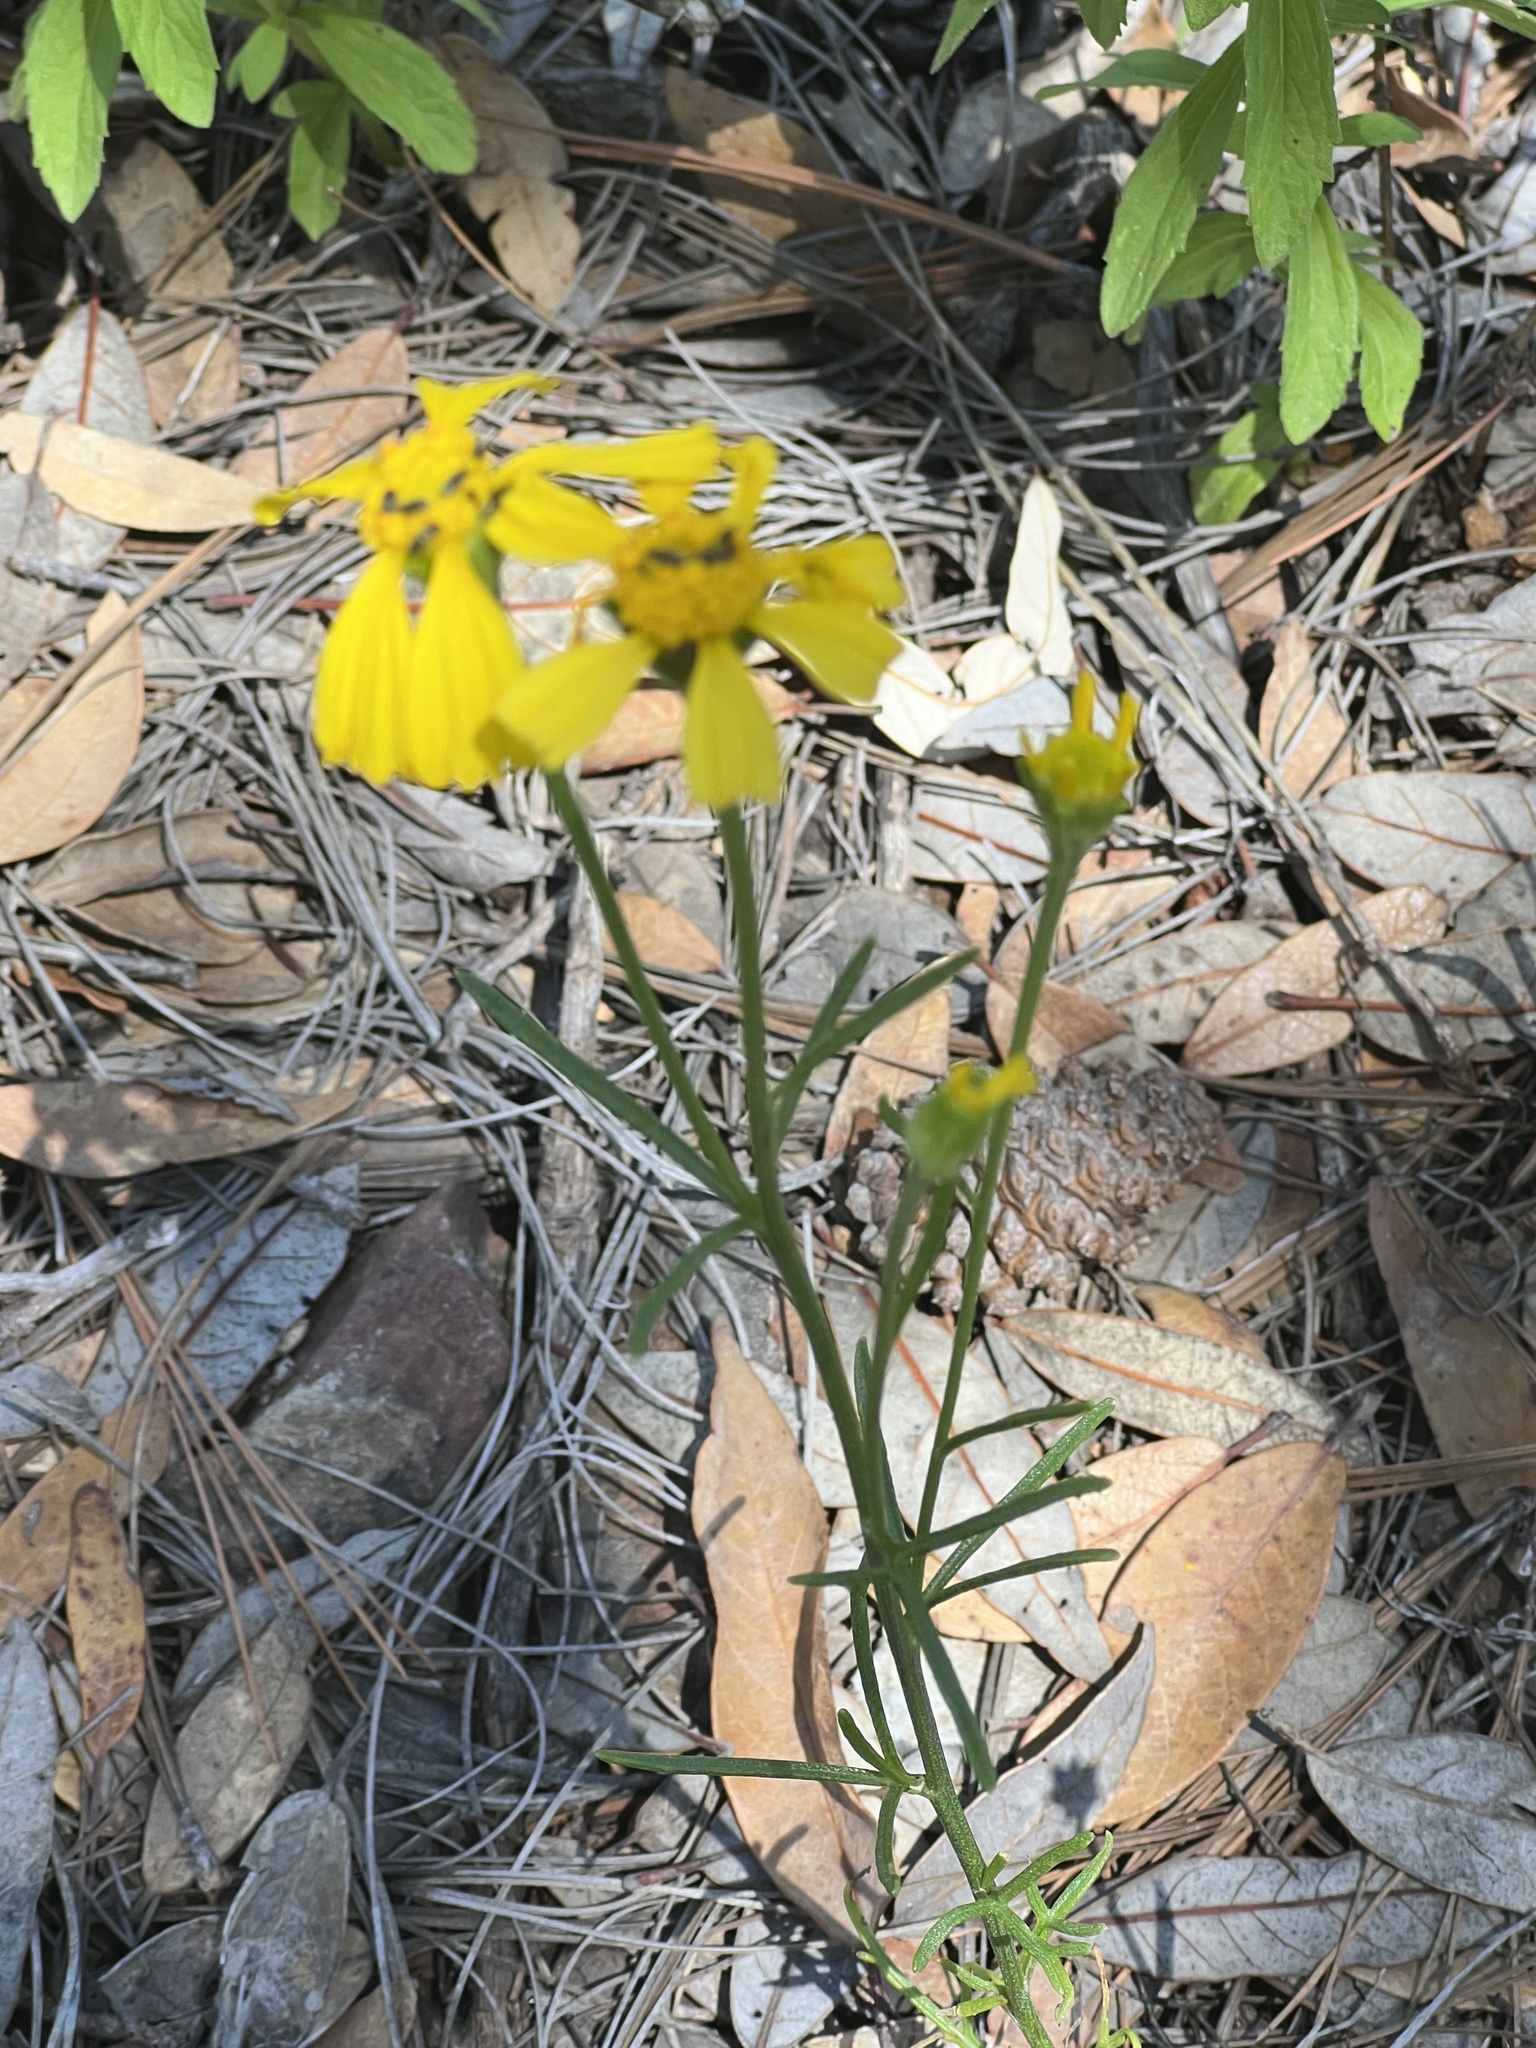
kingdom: Plantae
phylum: Tracheophyta
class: Magnoliopsida
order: Asterales
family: Asteraceae
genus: Hymenoxys
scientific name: Hymenoxys quinquesquamata
